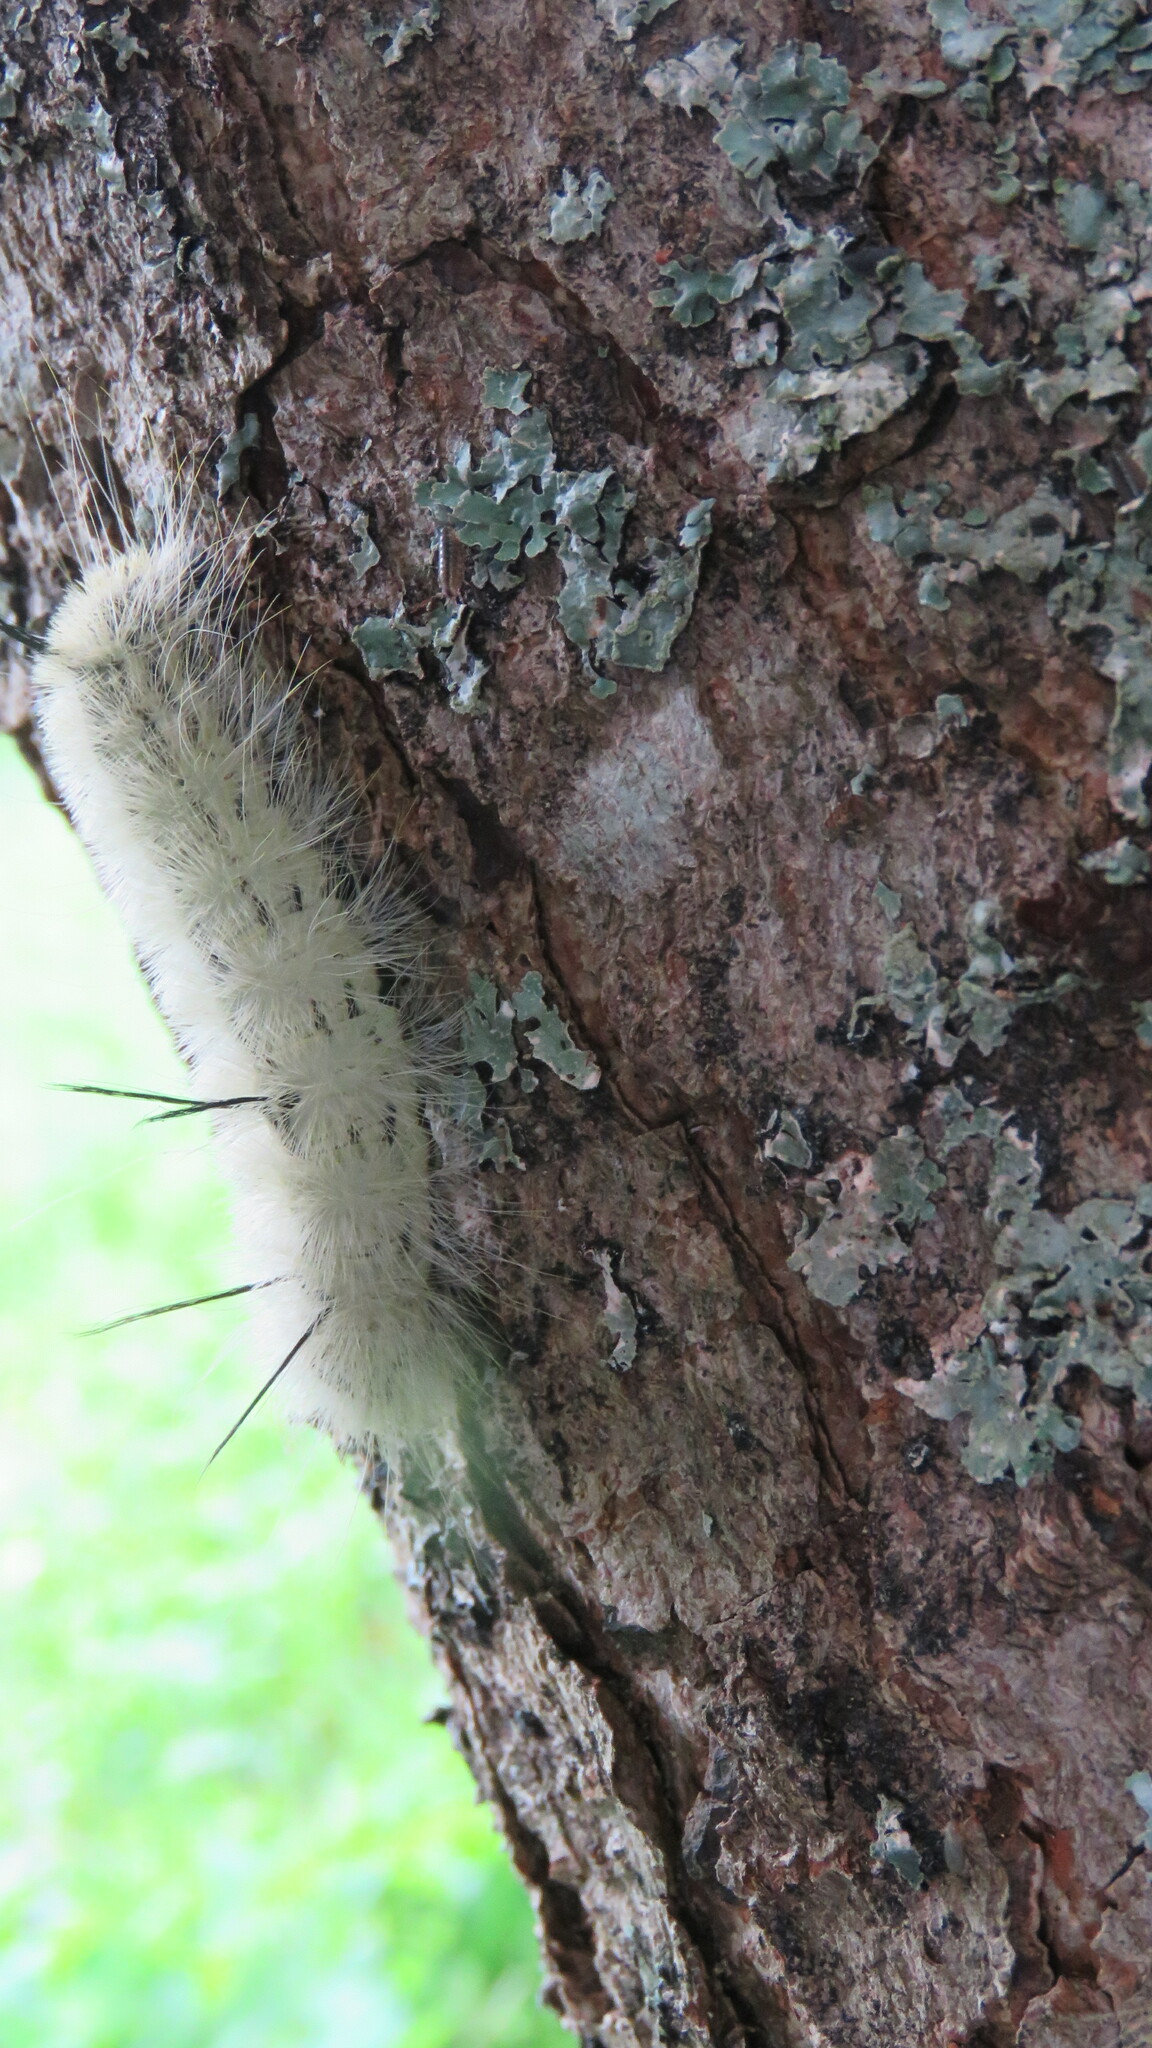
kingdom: Animalia
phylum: Arthropoda
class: Insecta
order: Lepidoptera
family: Noctuidae
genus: Acronicta
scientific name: Acronicta americana
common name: American dagger
